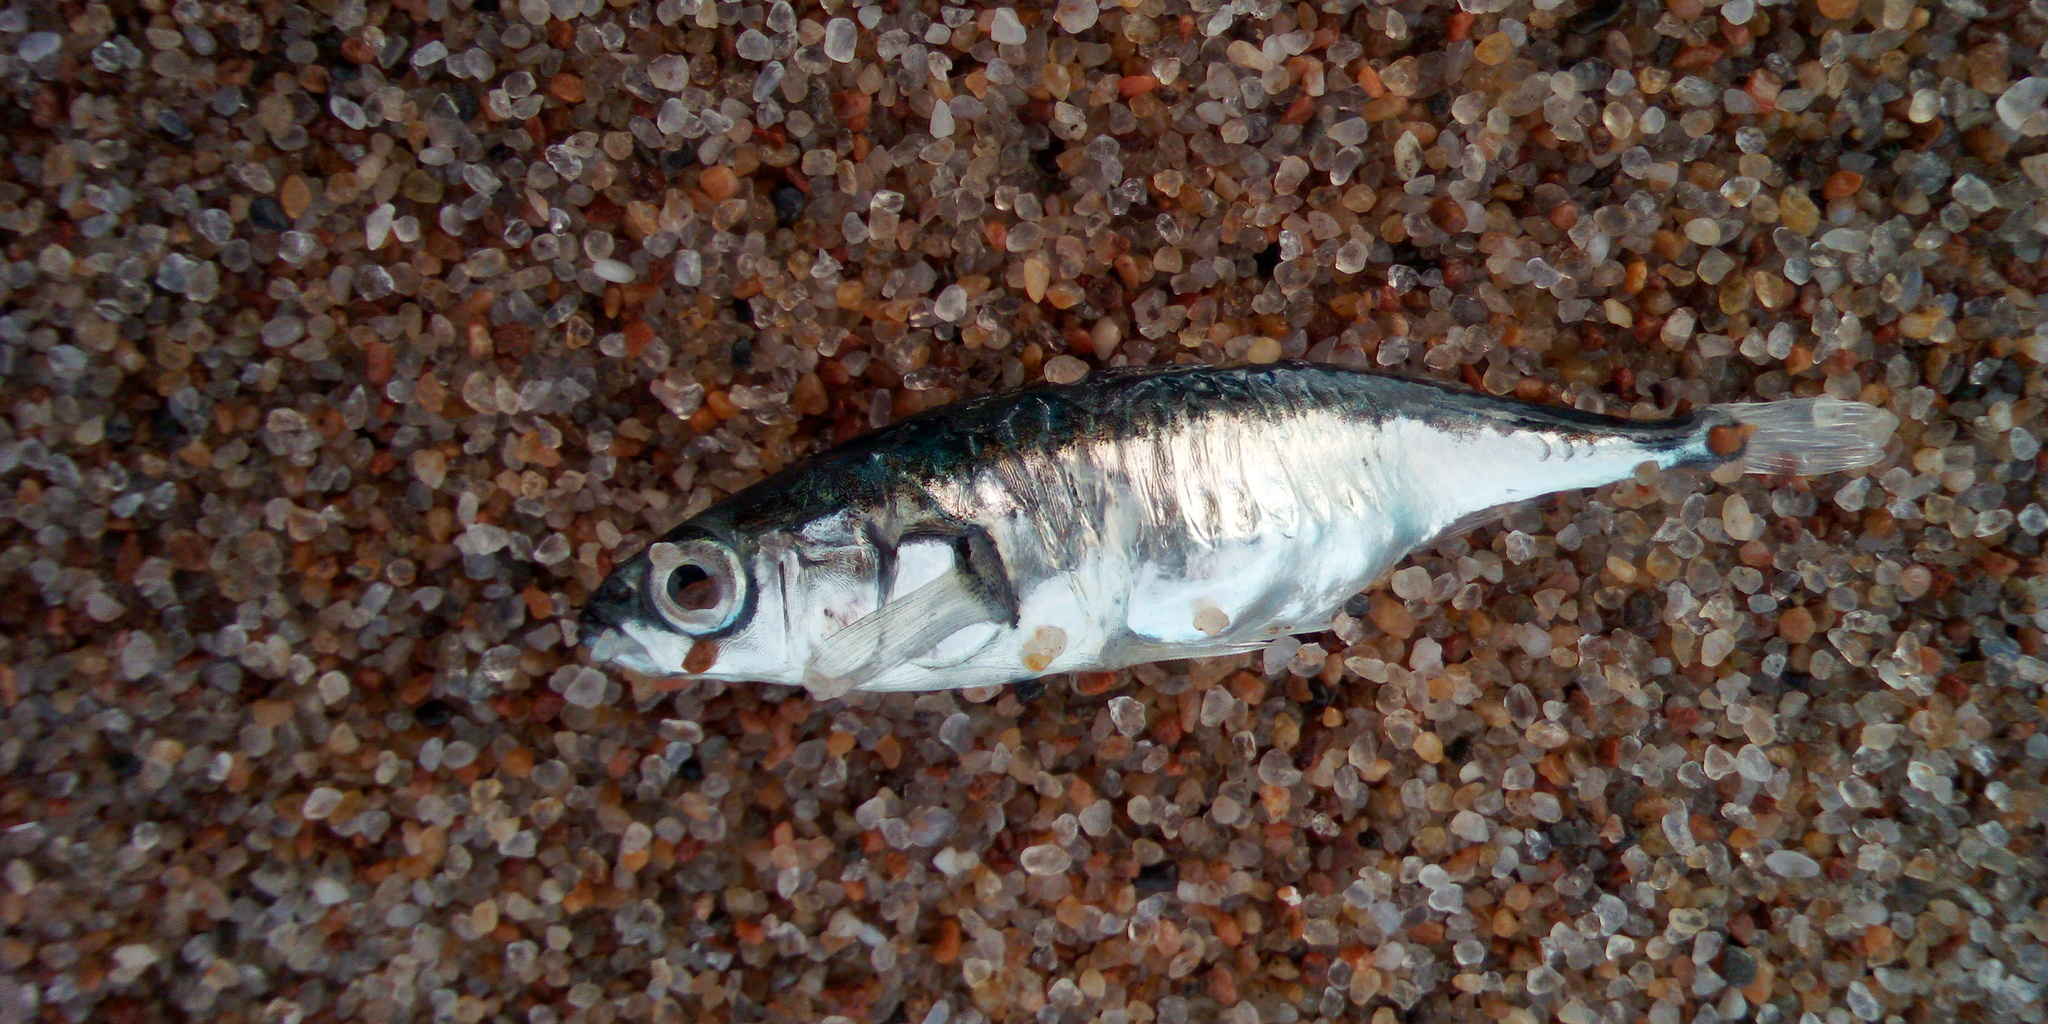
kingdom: Animalia
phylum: Chordata
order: Gasterosteiformes
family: Gasterosteidae
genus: Gasterosteus
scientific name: Gasterosteus aculeatus
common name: Three-spined stickleback
